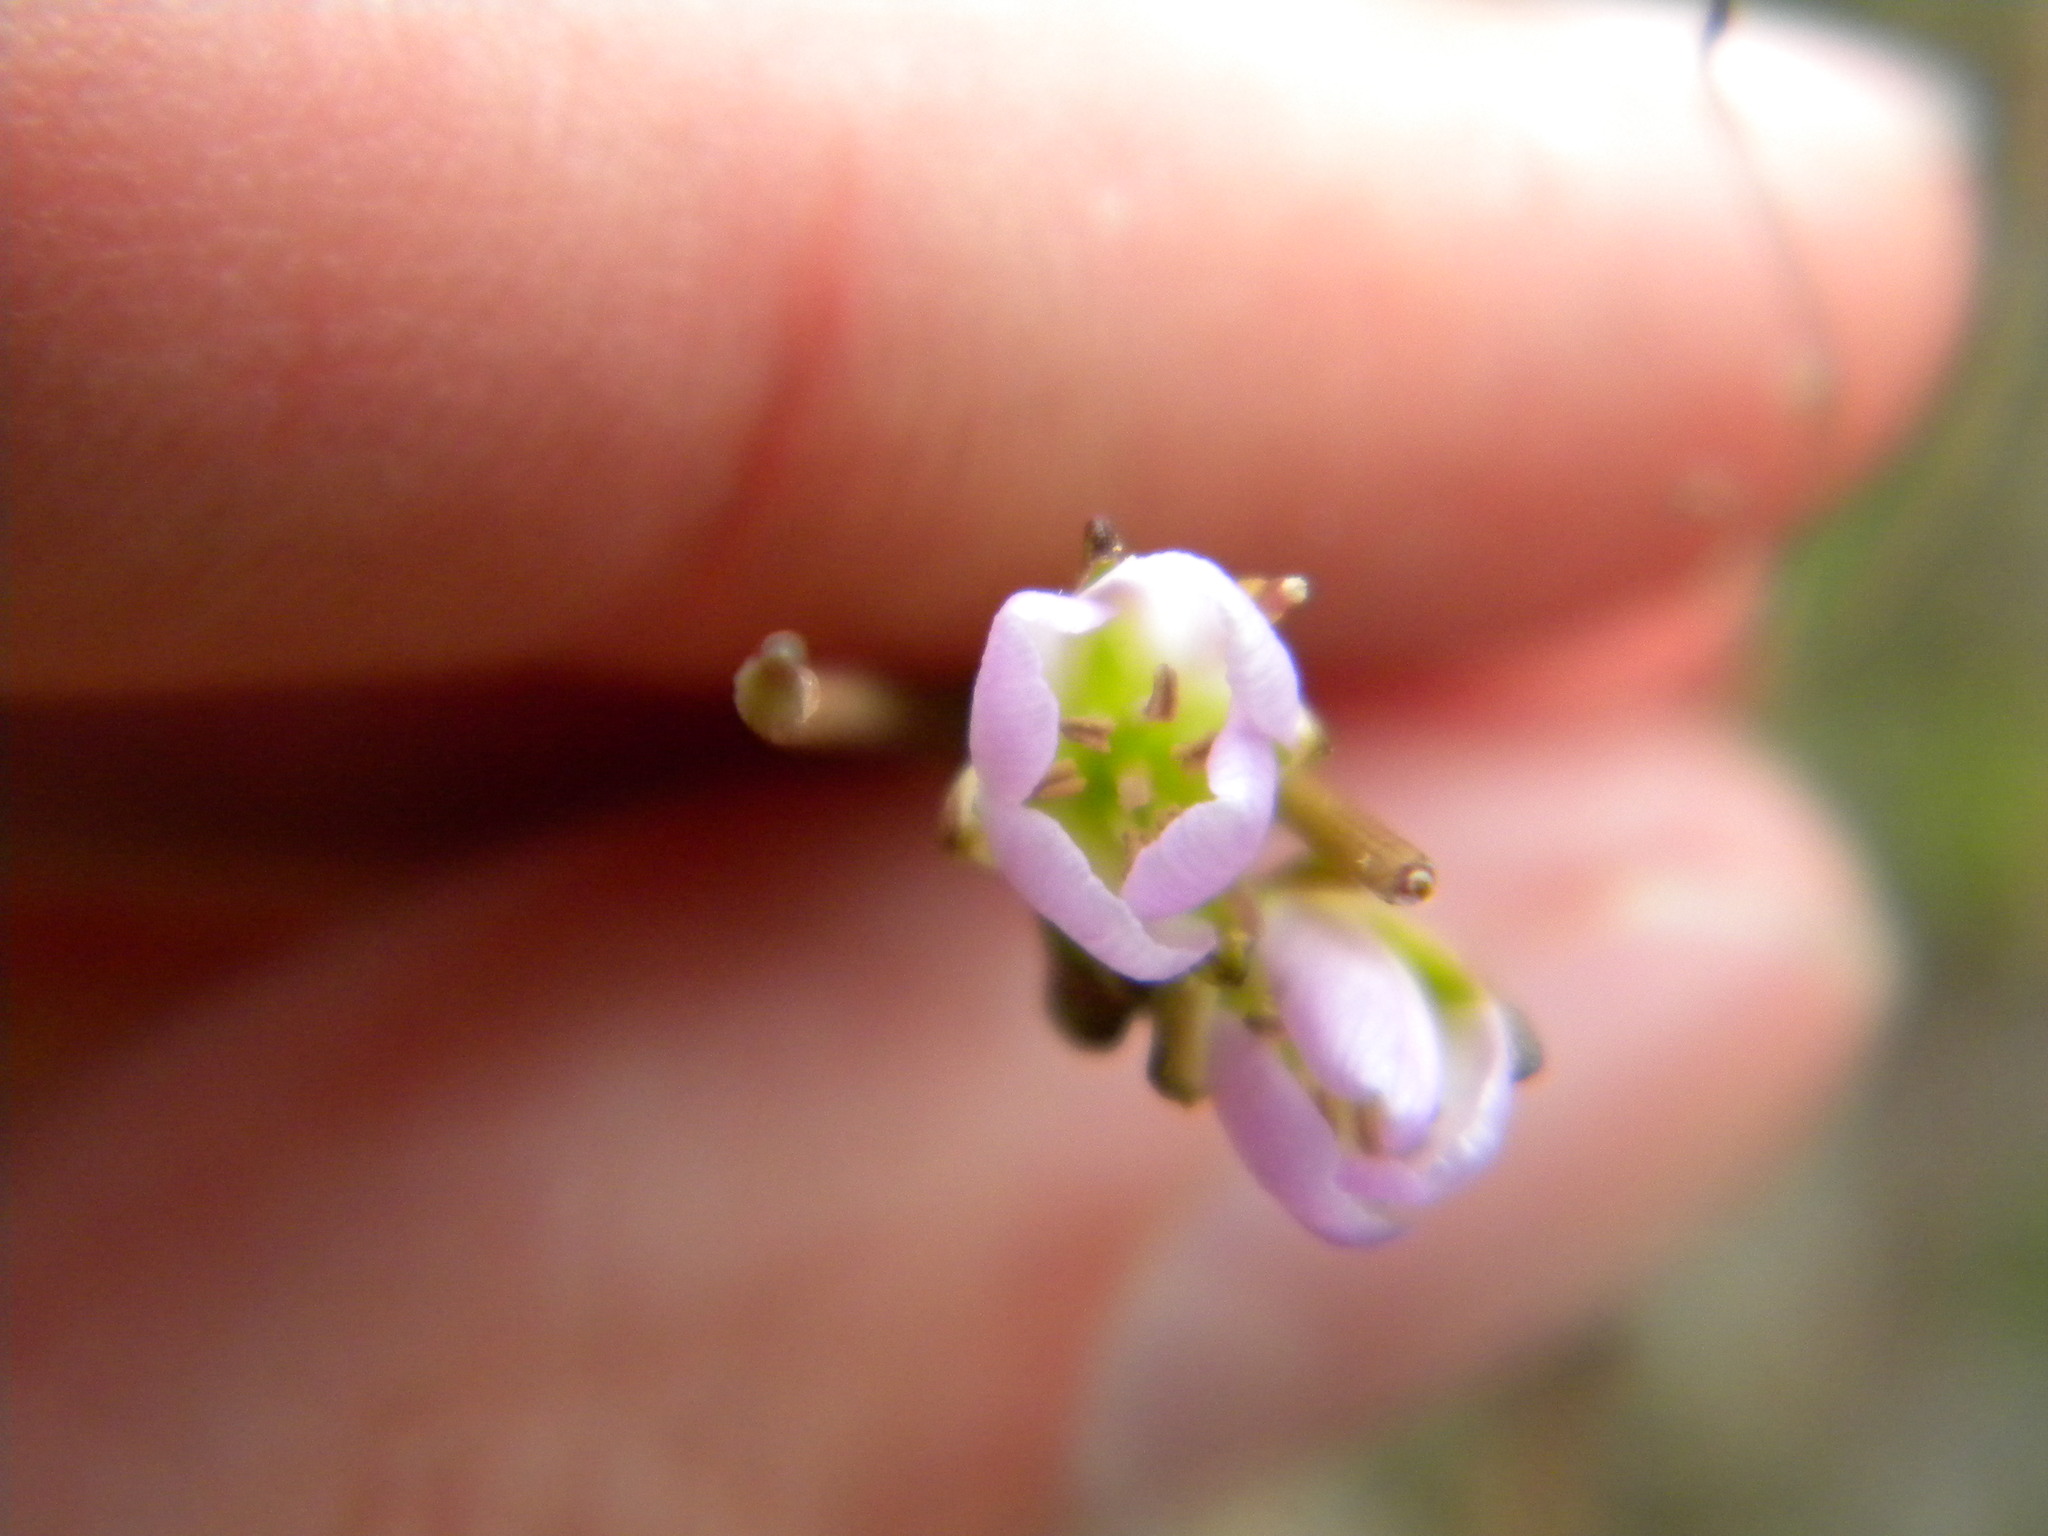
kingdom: Plantae
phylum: Tracheophyta
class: Magnoliopsida
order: Brassicales
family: Brassicaceae
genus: Heliophila
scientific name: Heliophila scoparia
